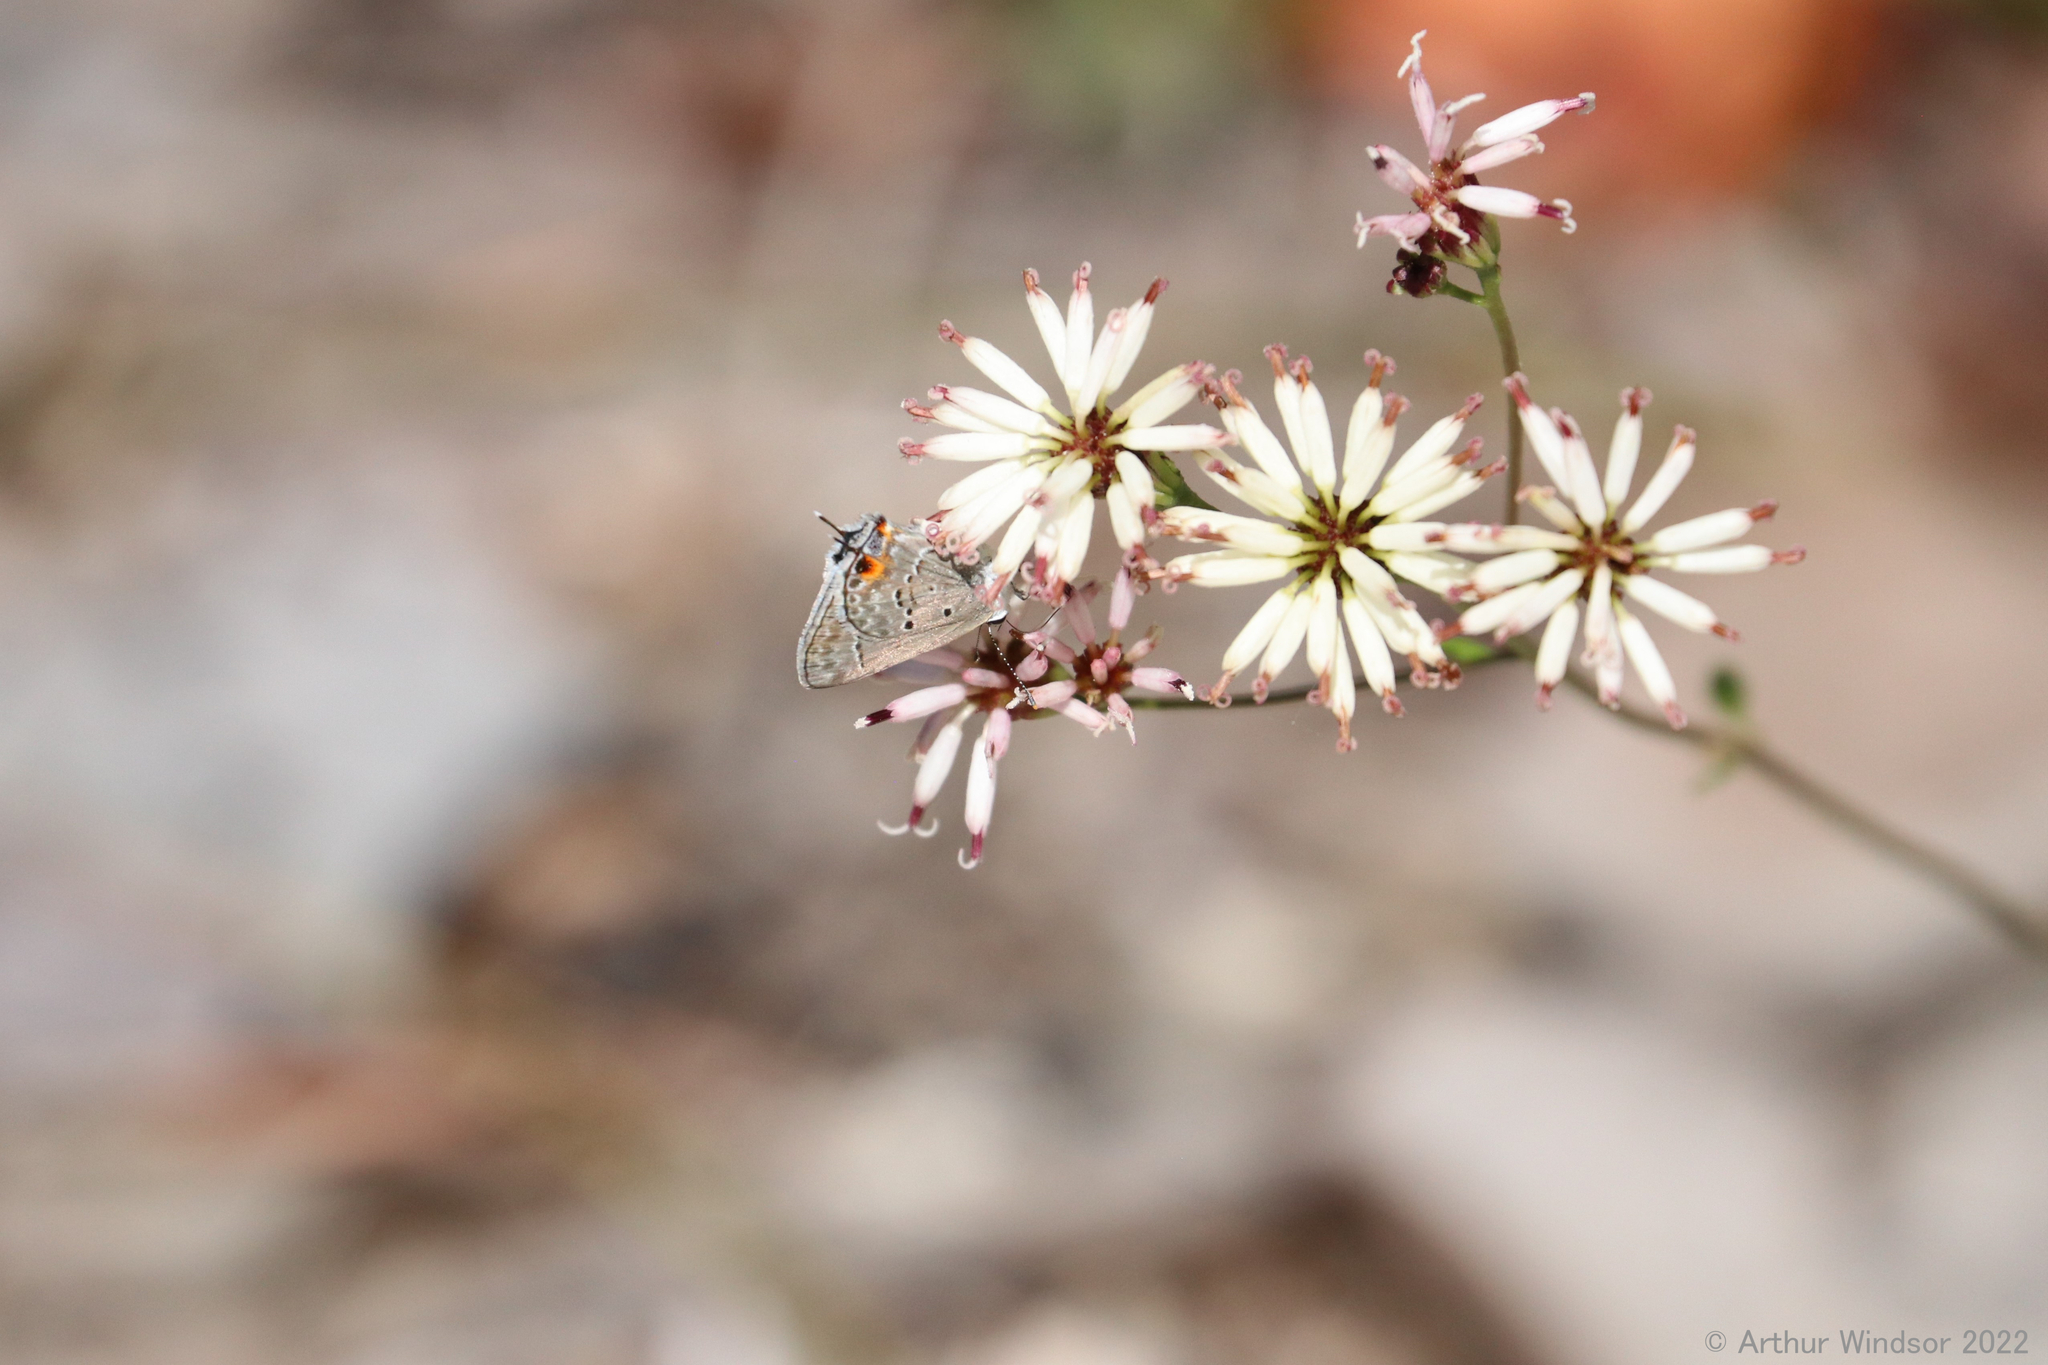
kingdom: Animalia
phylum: Arthropoda
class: Insecta
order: Lepidoptera
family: Lycaenidae
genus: Callicista
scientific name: Callicista columella
